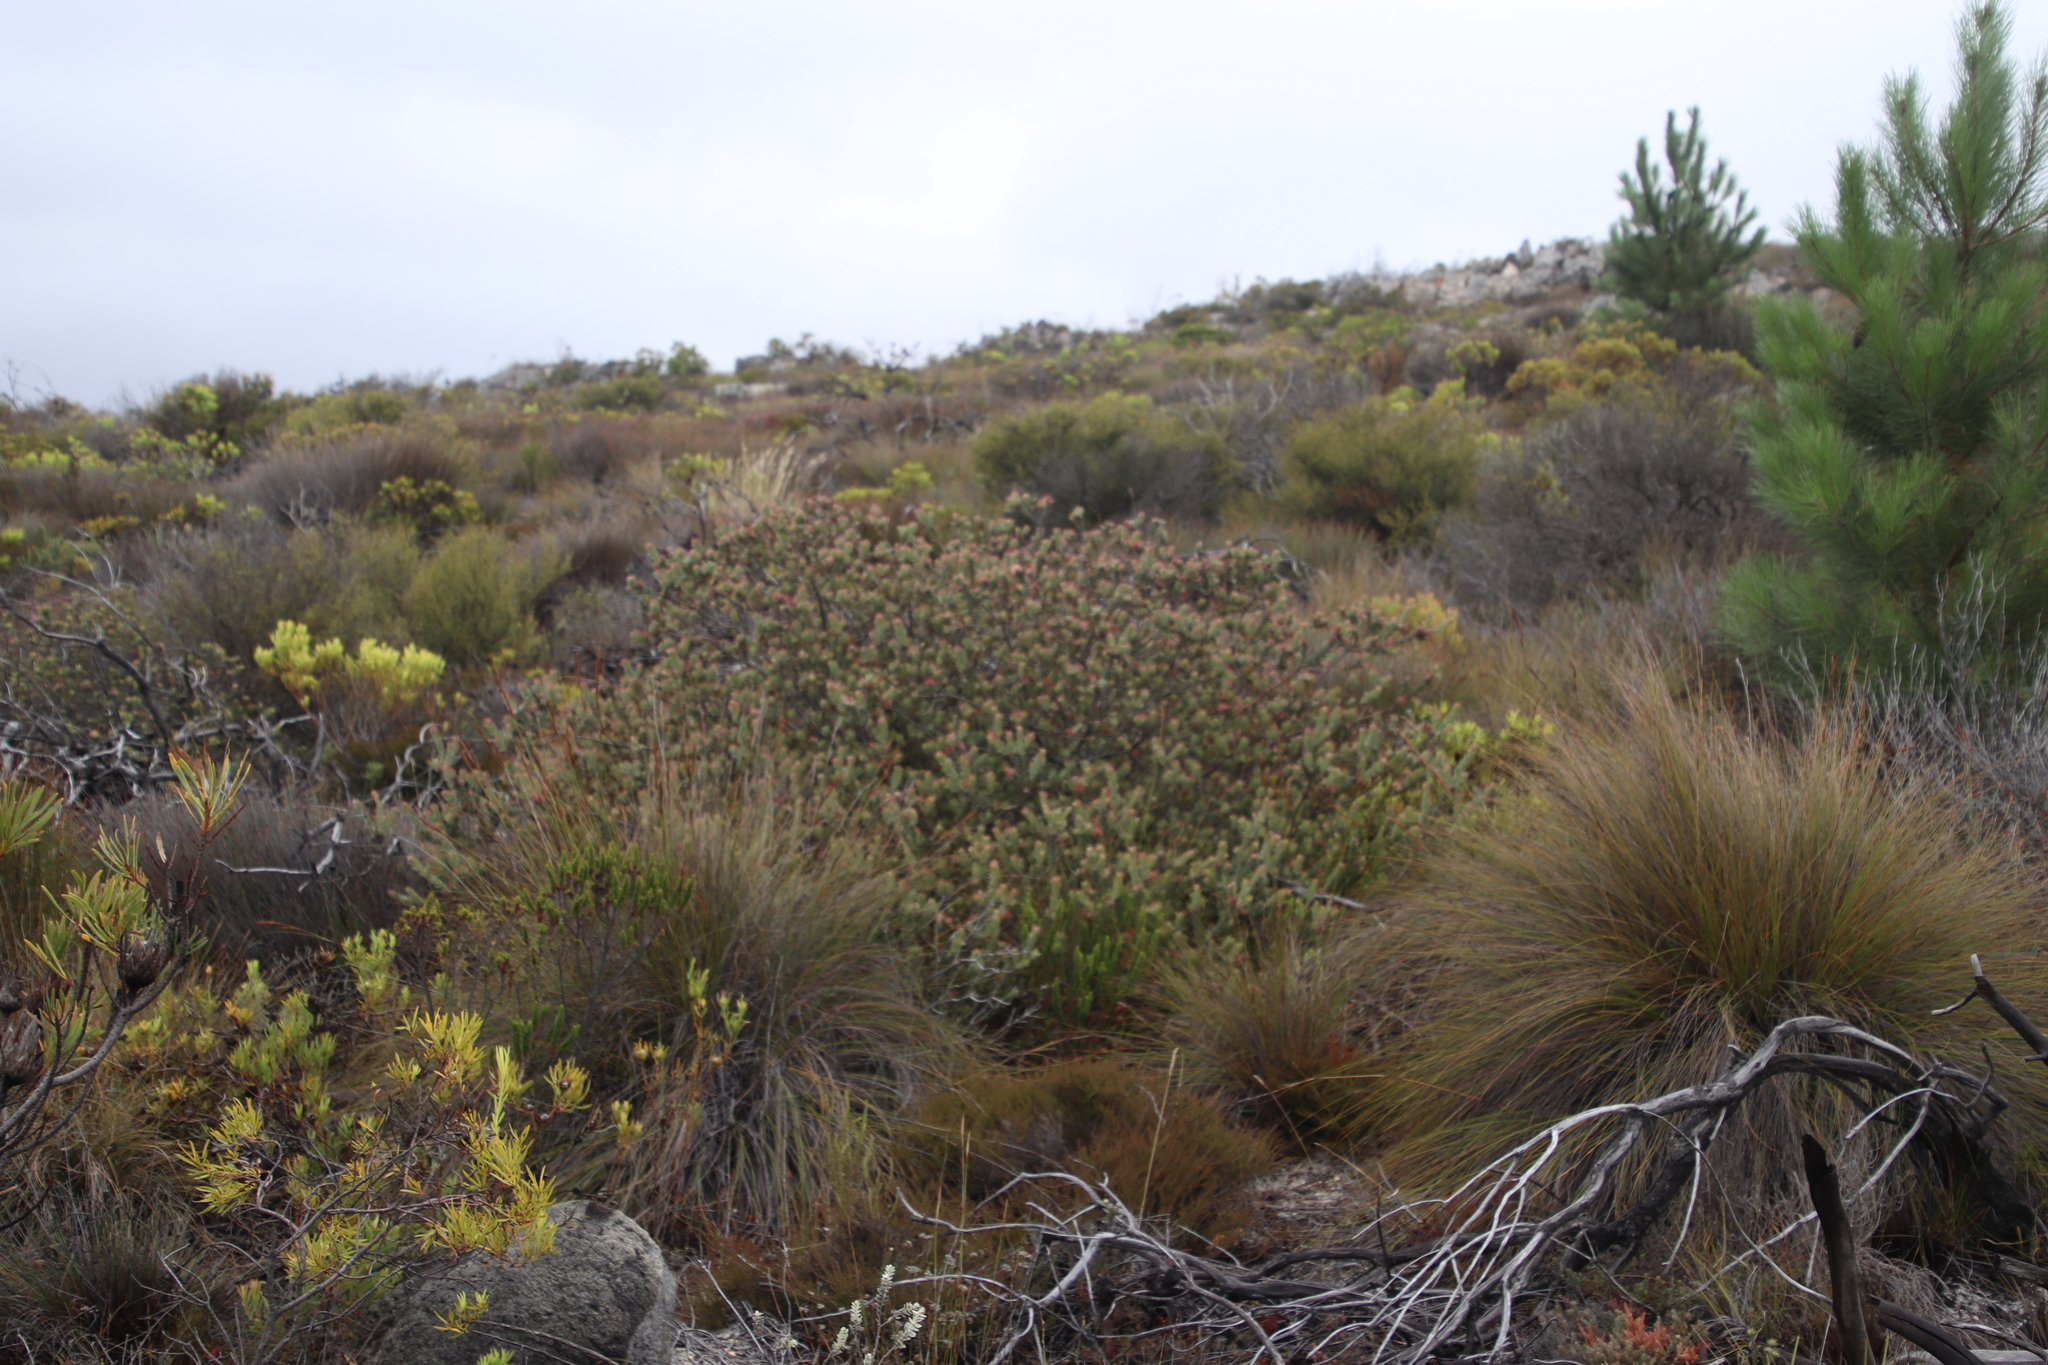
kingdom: Plantae
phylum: Tracheophyta
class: Magnoliopsida
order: Proteales
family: Proteaceae
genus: Leucospermum
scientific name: Leucospermum calligerum
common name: Arid pincushion
